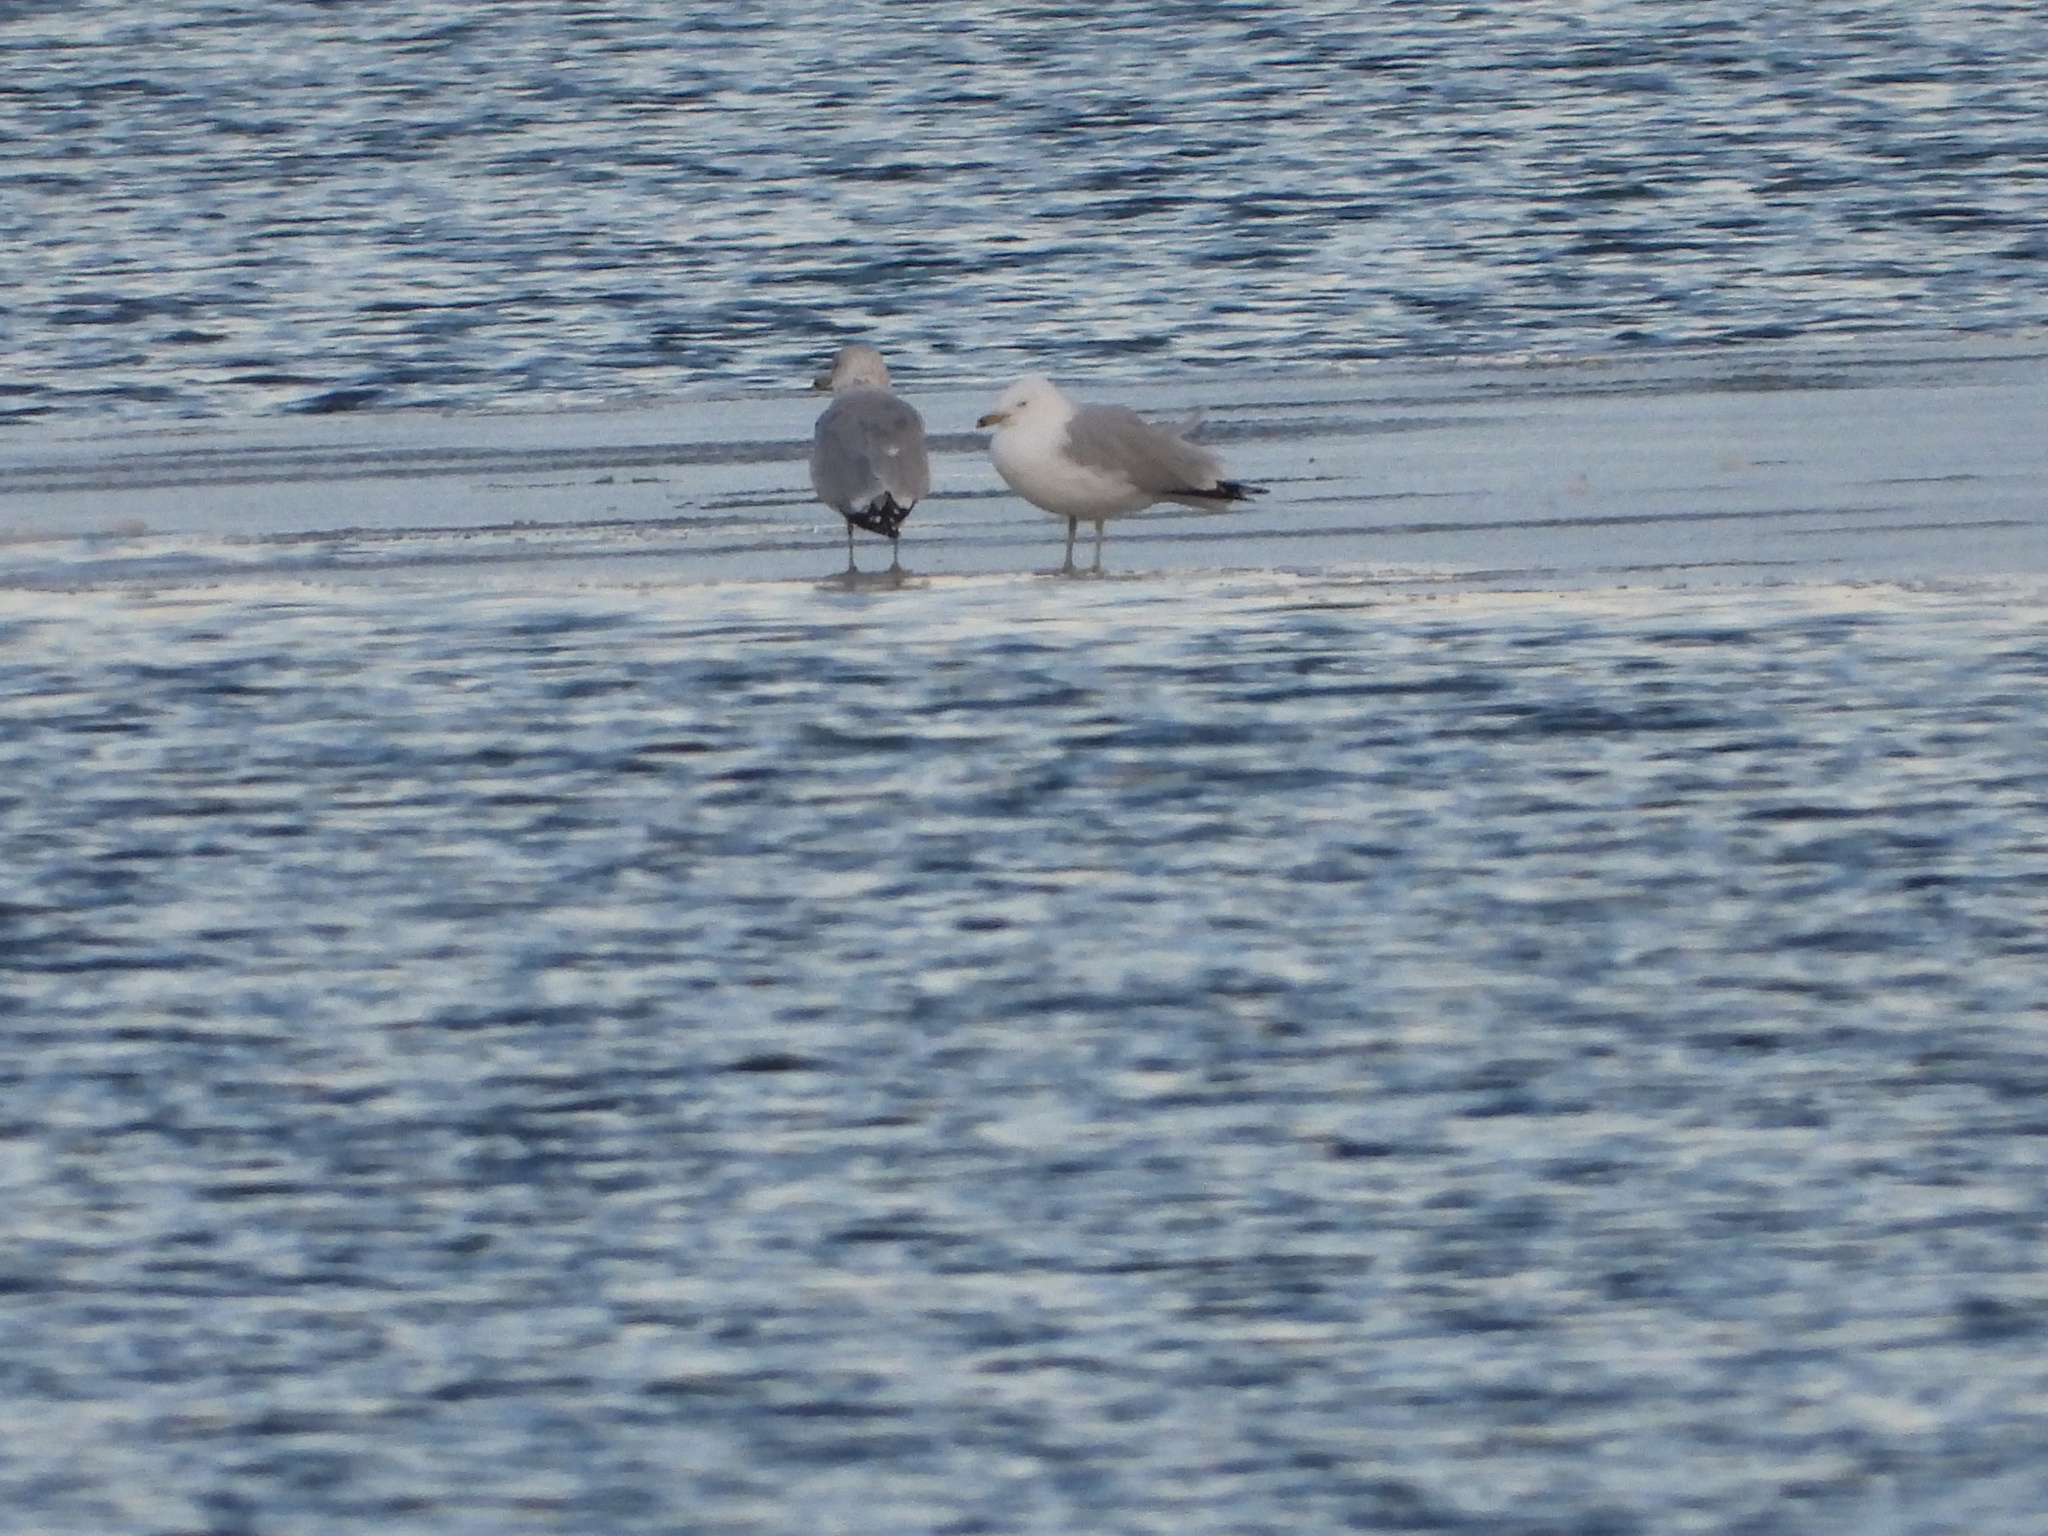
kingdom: Animalia
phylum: Chordata
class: Aves
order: Charadriiformes
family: Laridae
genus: Larus
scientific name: Larus delawarensis
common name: Ring-billed gull
